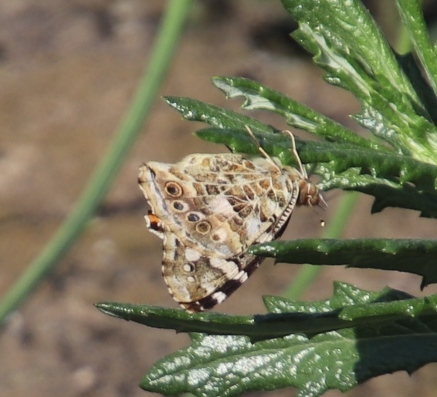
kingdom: Animalia
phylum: Arthropoda
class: Insecta
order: Lepidoptera
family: Nymphalidae
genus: Vanessa
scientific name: Vanessa cardui
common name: Painted lady
